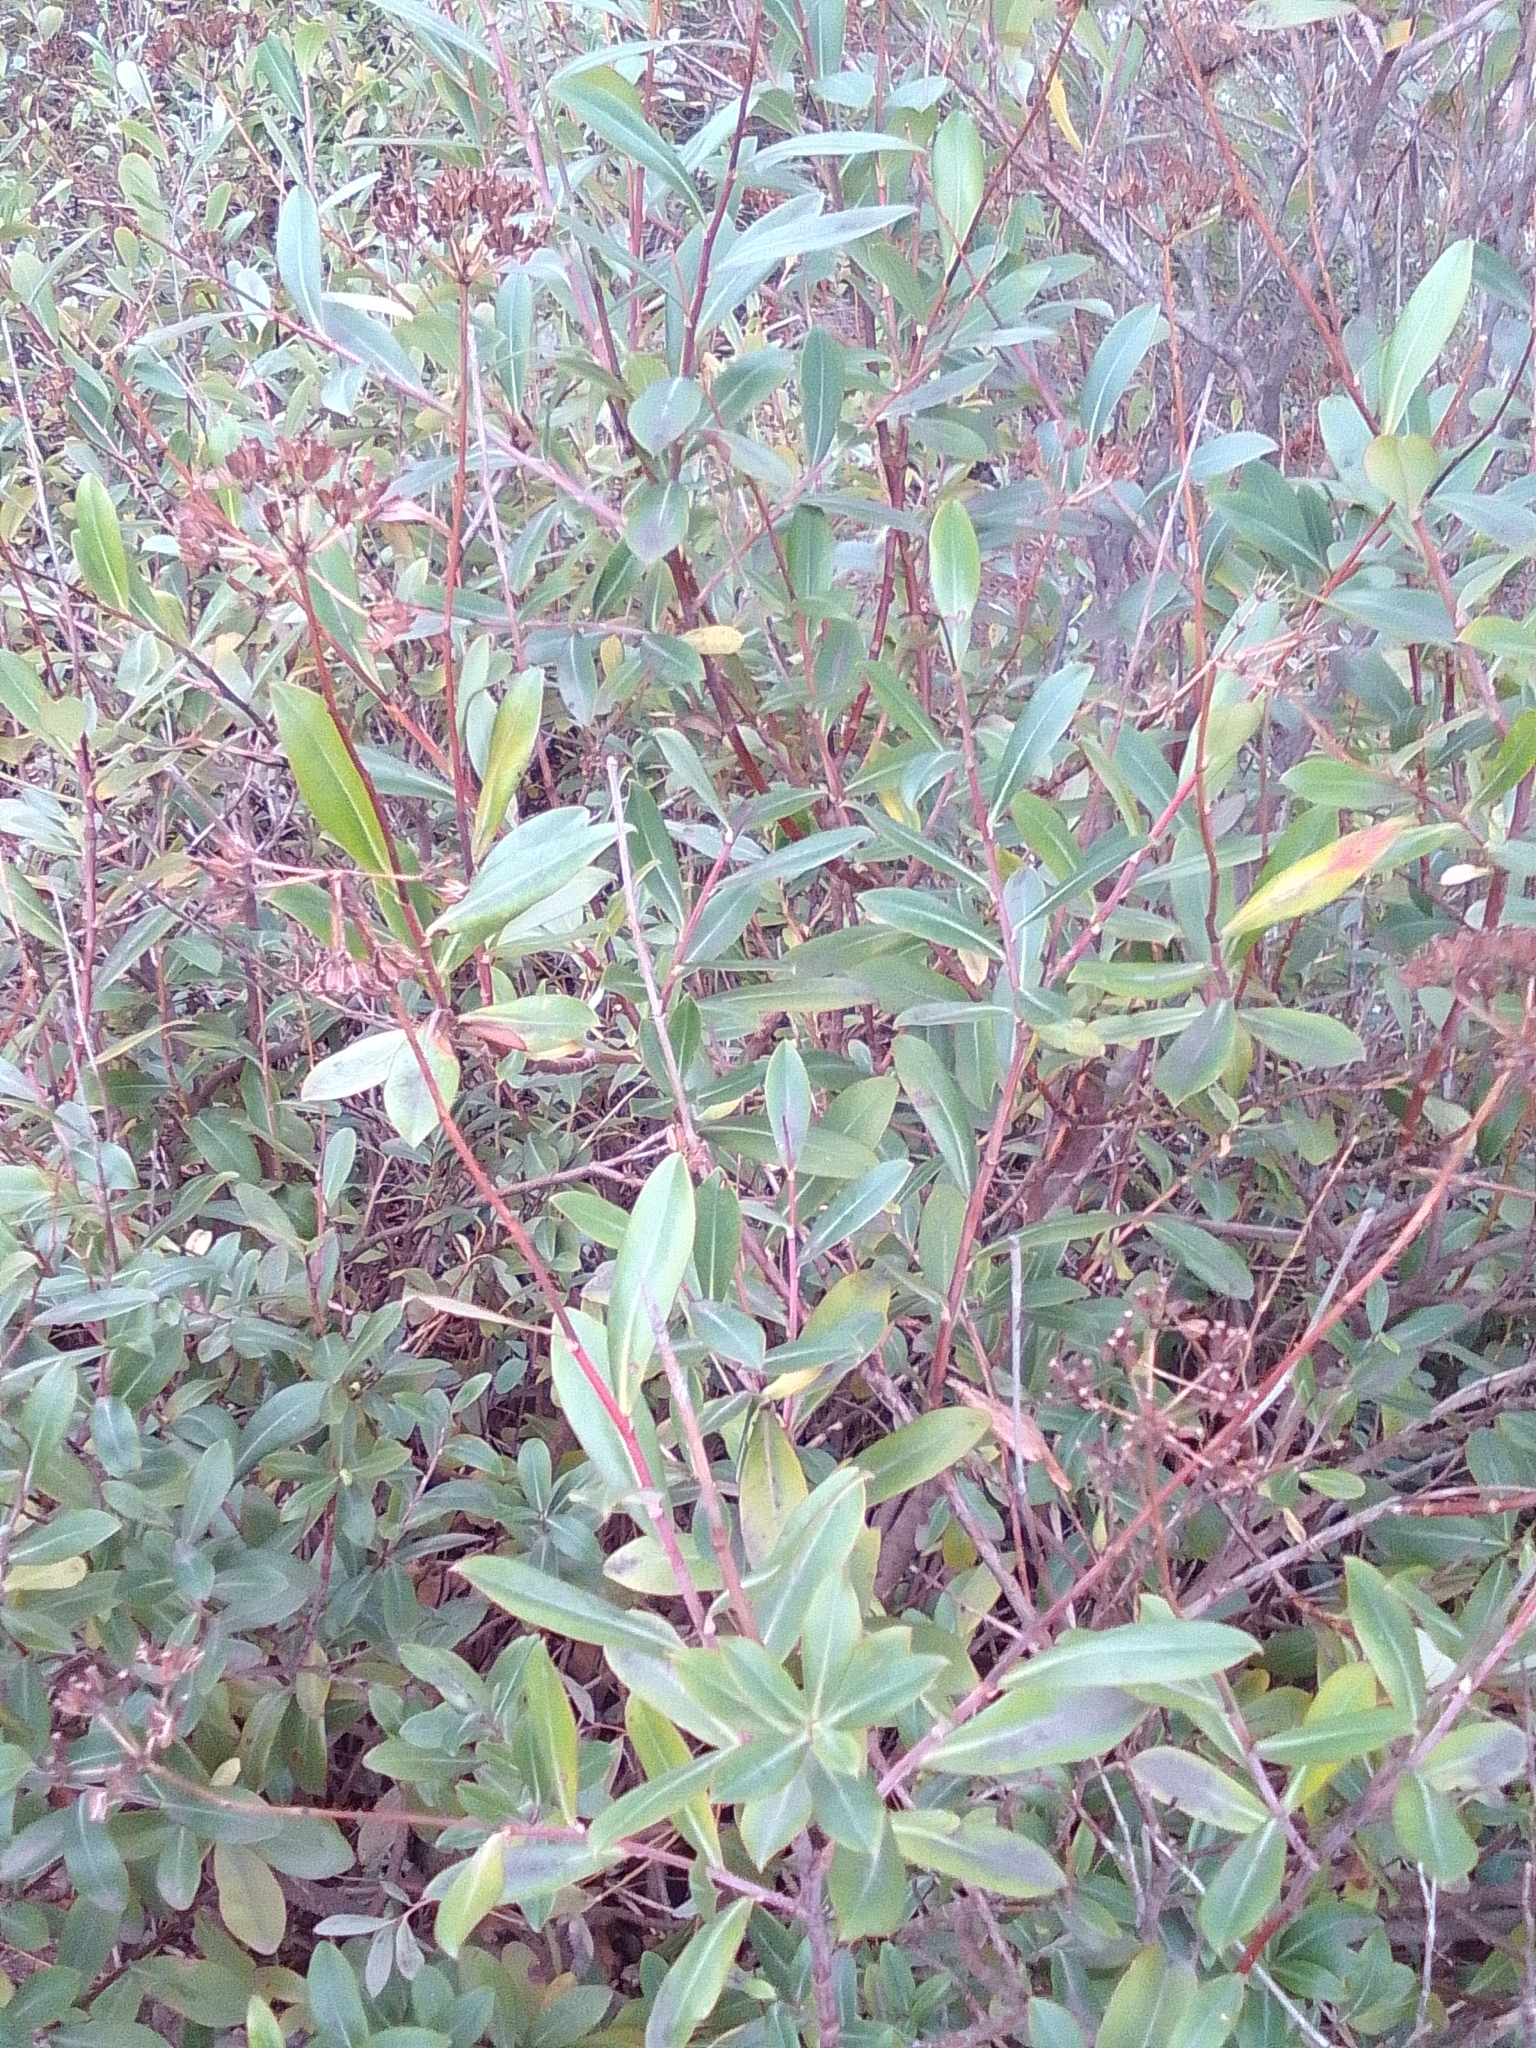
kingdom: Plantae
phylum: Tracheophyta
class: Magnoliopsida
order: Apiales
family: Apiaceae
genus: Bupleurum
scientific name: Bupleurum fruticosum
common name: Shrubby hare's-ear
